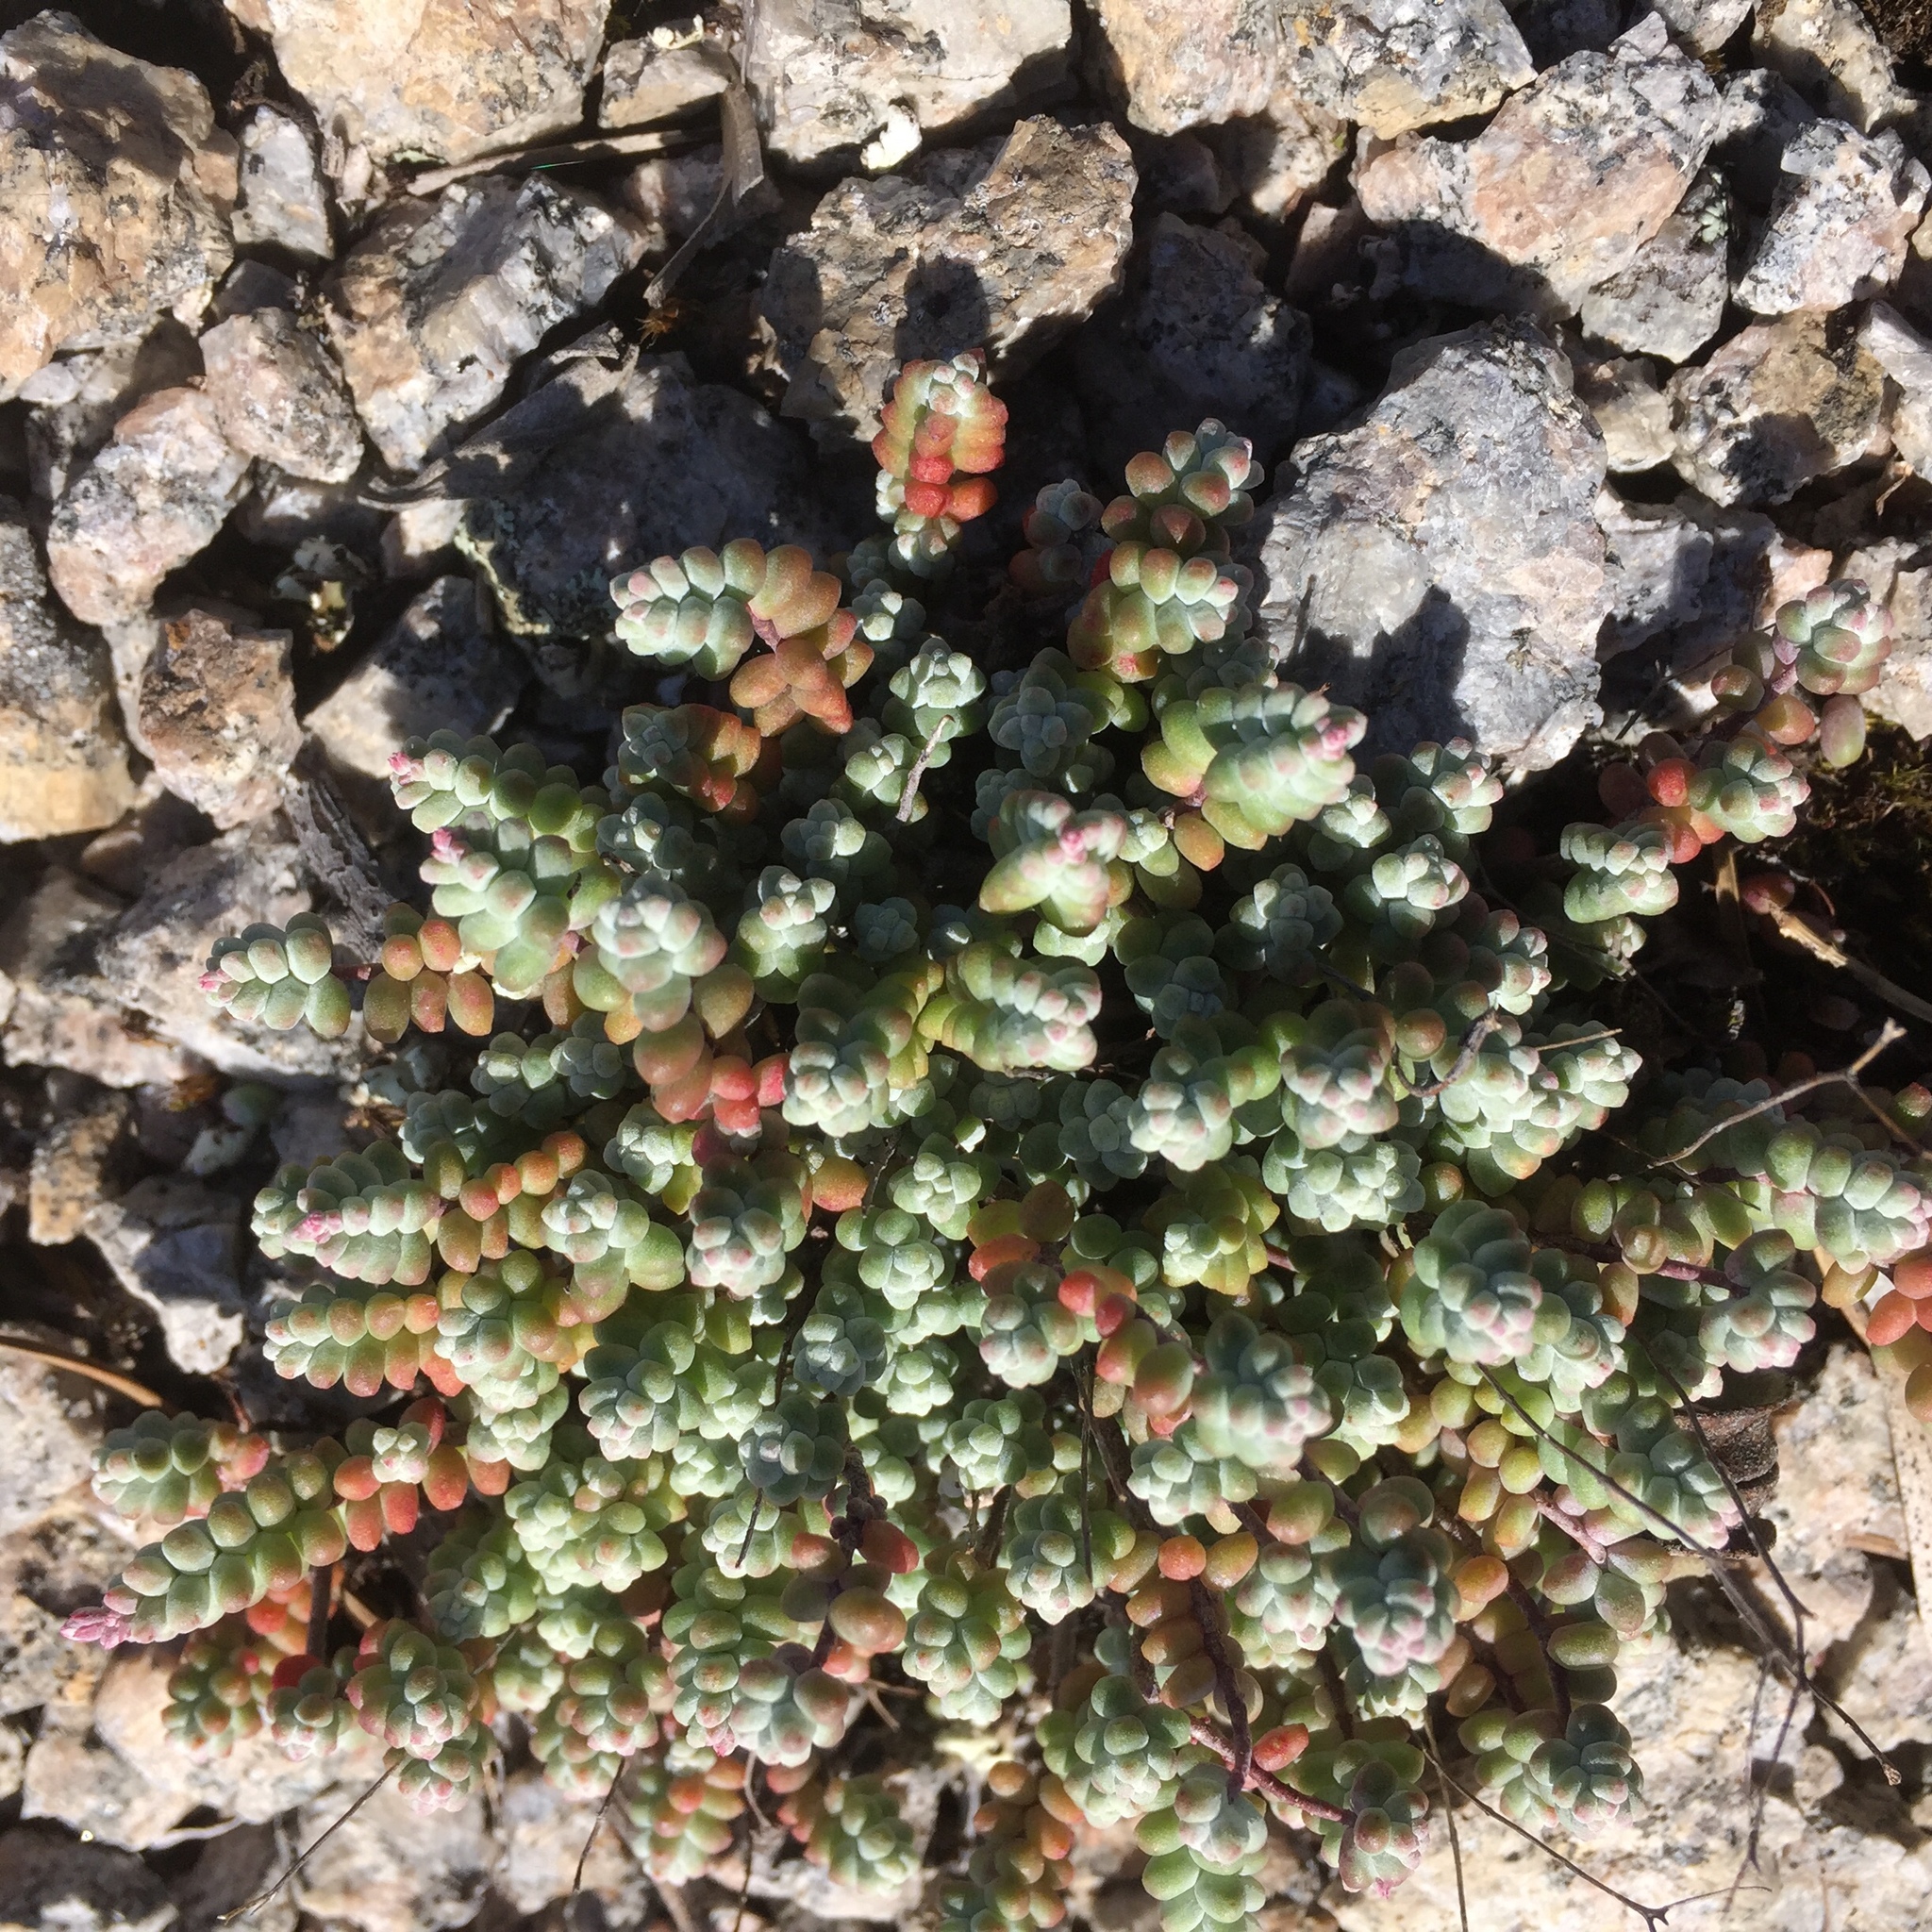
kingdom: Plantae
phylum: Tracheophyta
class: Magnoliopsida
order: Saxifragales
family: Crassulaceae
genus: Sedum
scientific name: Sedum brevifolium
